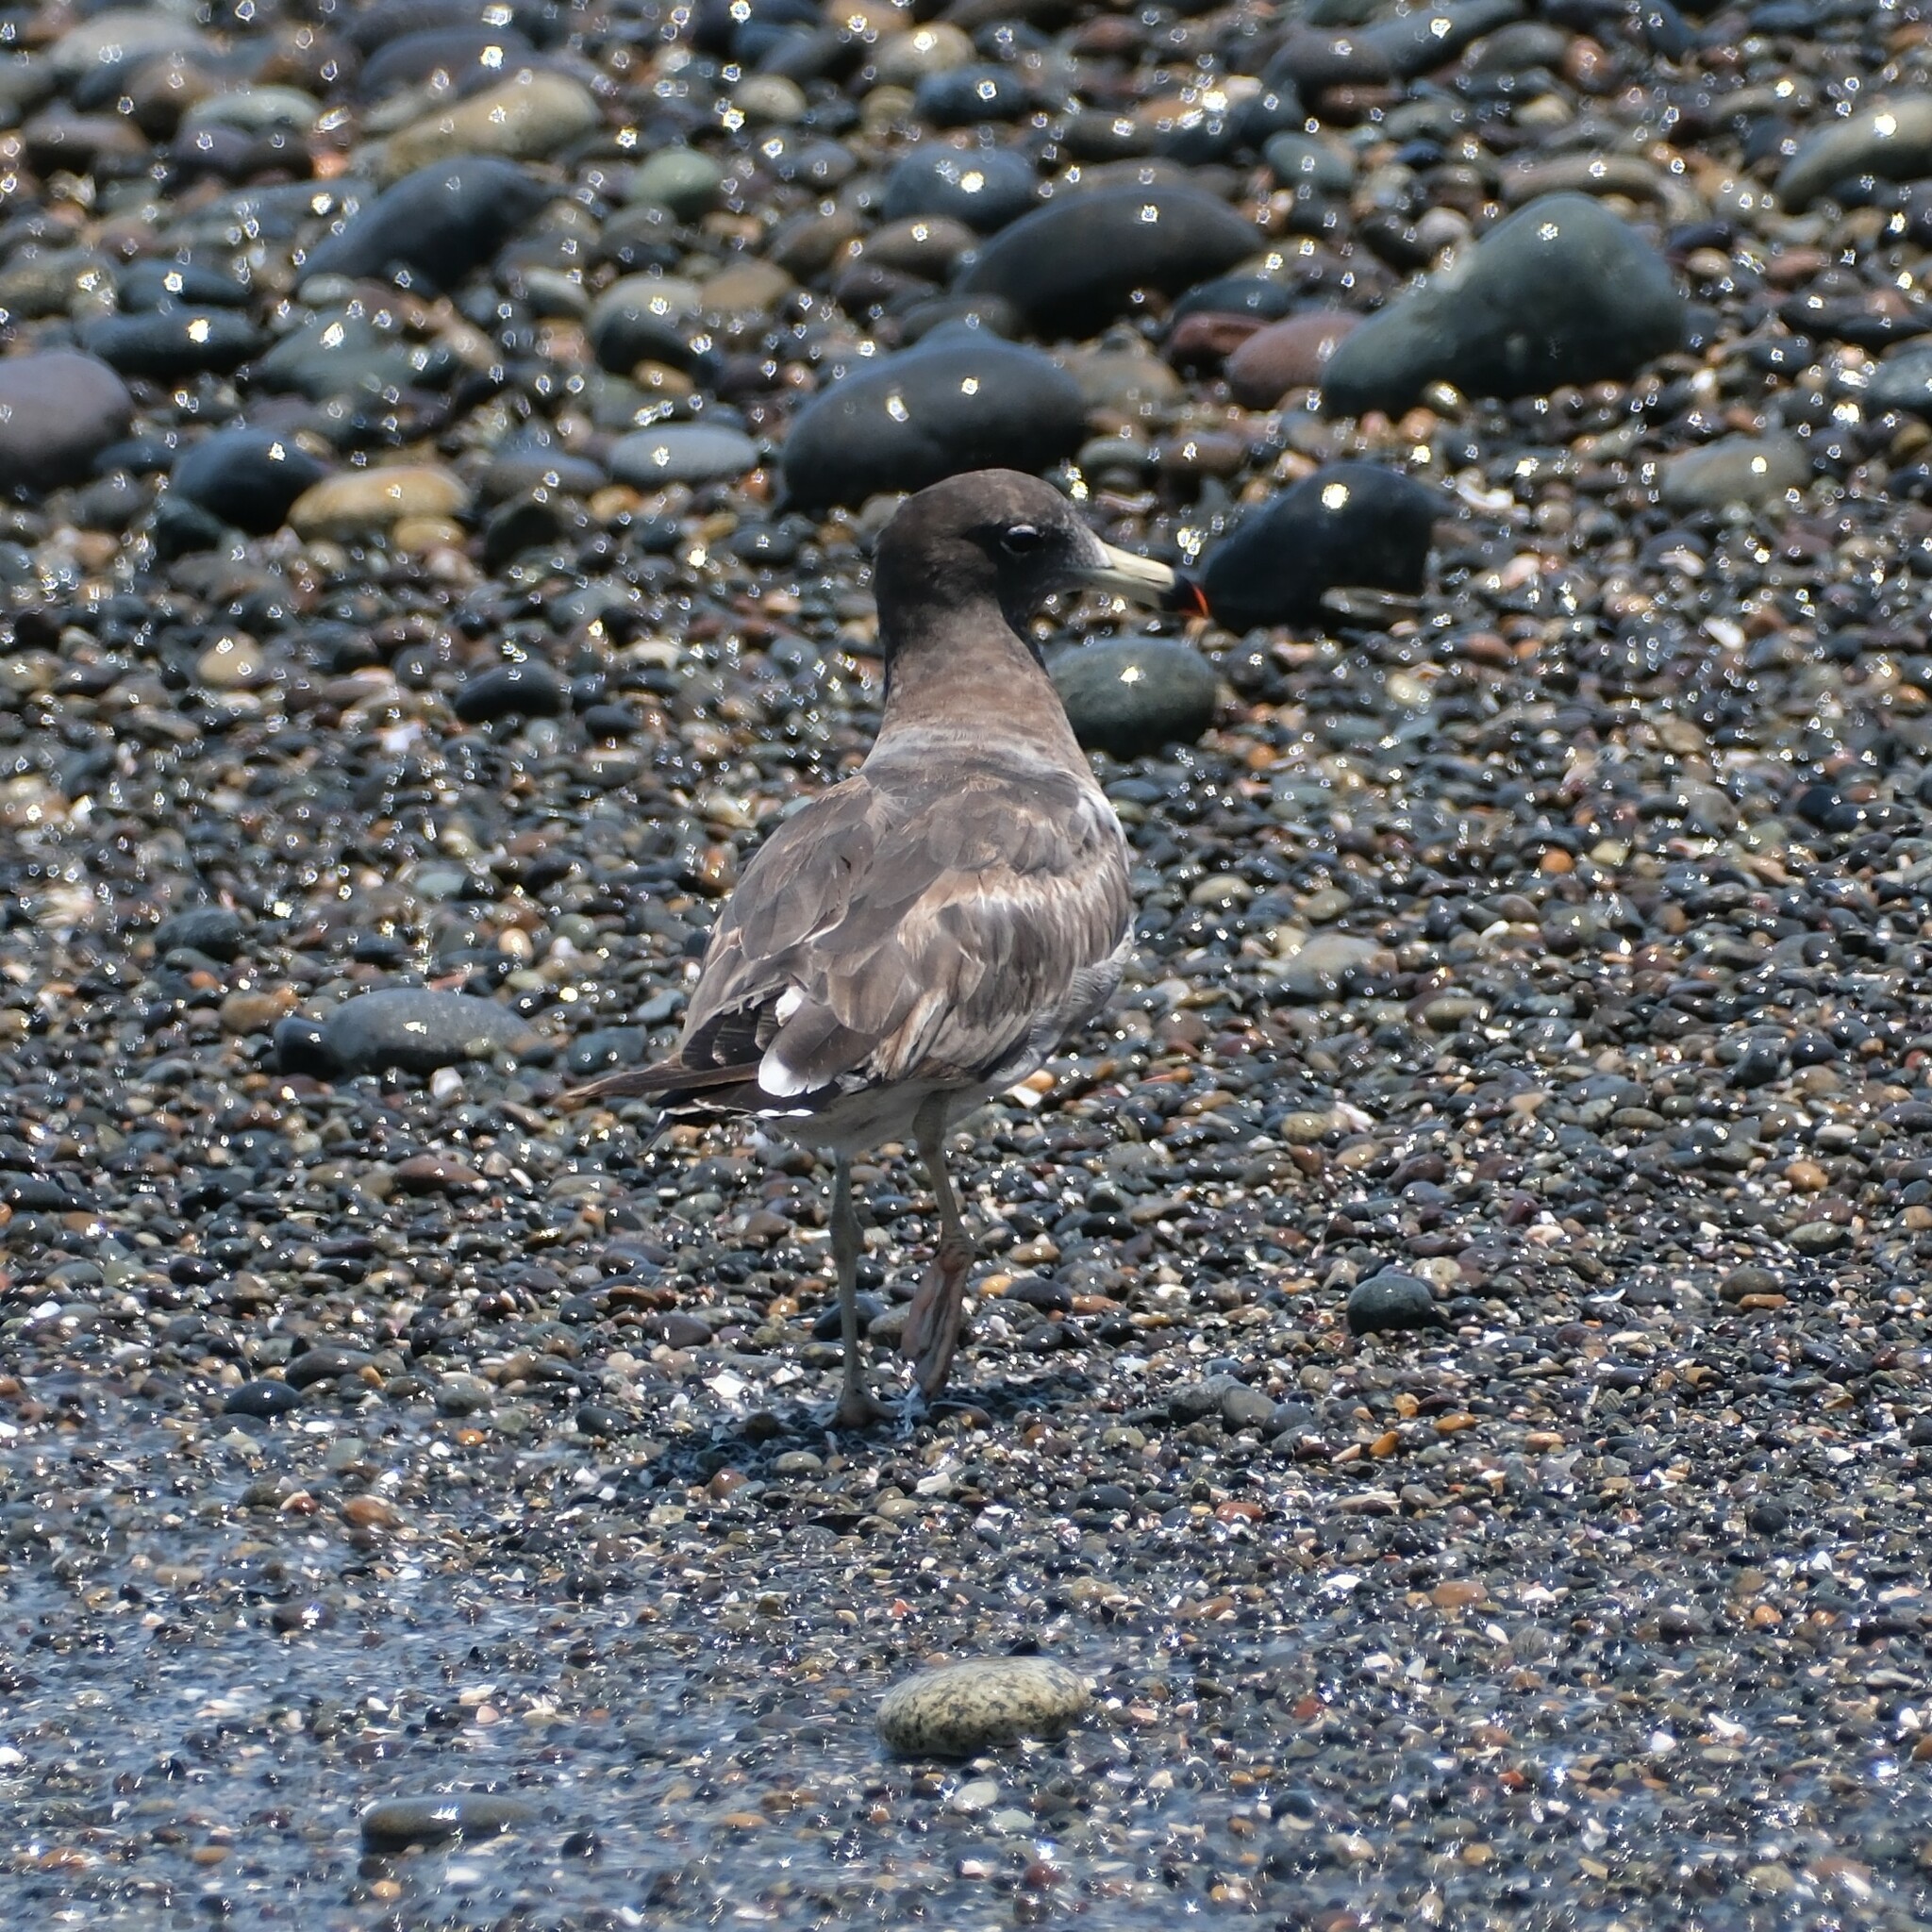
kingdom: Animalia
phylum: Chordata
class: Aves
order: Charadriiformes
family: Laridae
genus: Larus
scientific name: Larus belcheri
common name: Belcher's gull
